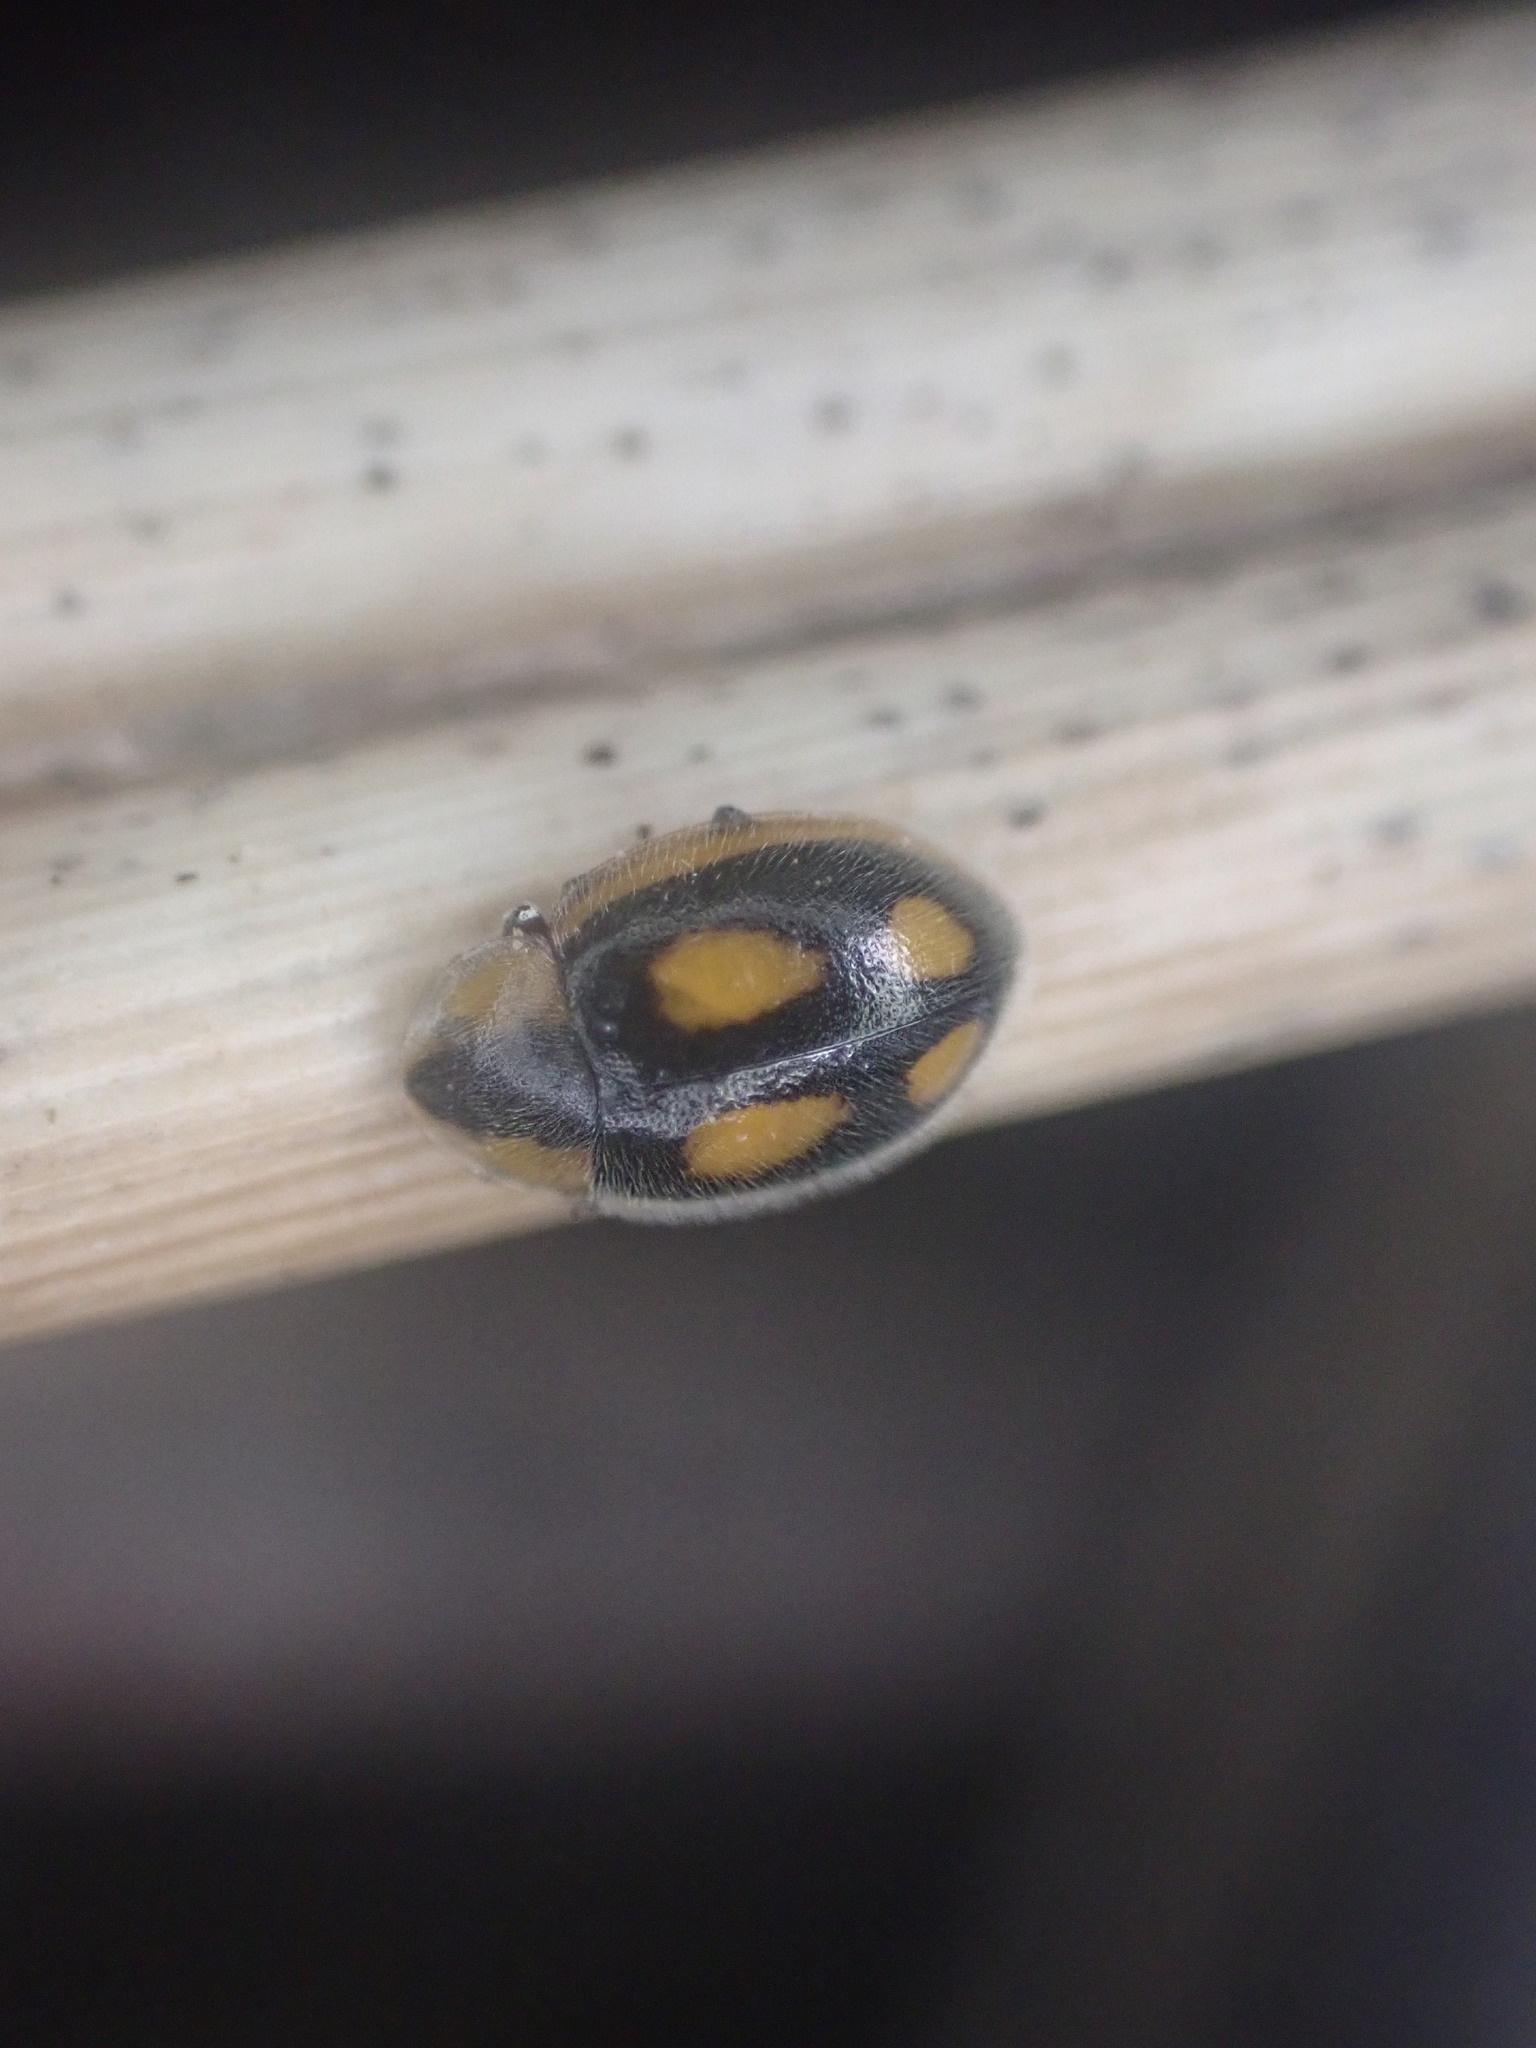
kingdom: Animalia
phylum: Arthropoda
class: Insecta
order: Coleoptera
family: Coccinellidae
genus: Hoangus
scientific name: Hoangus
